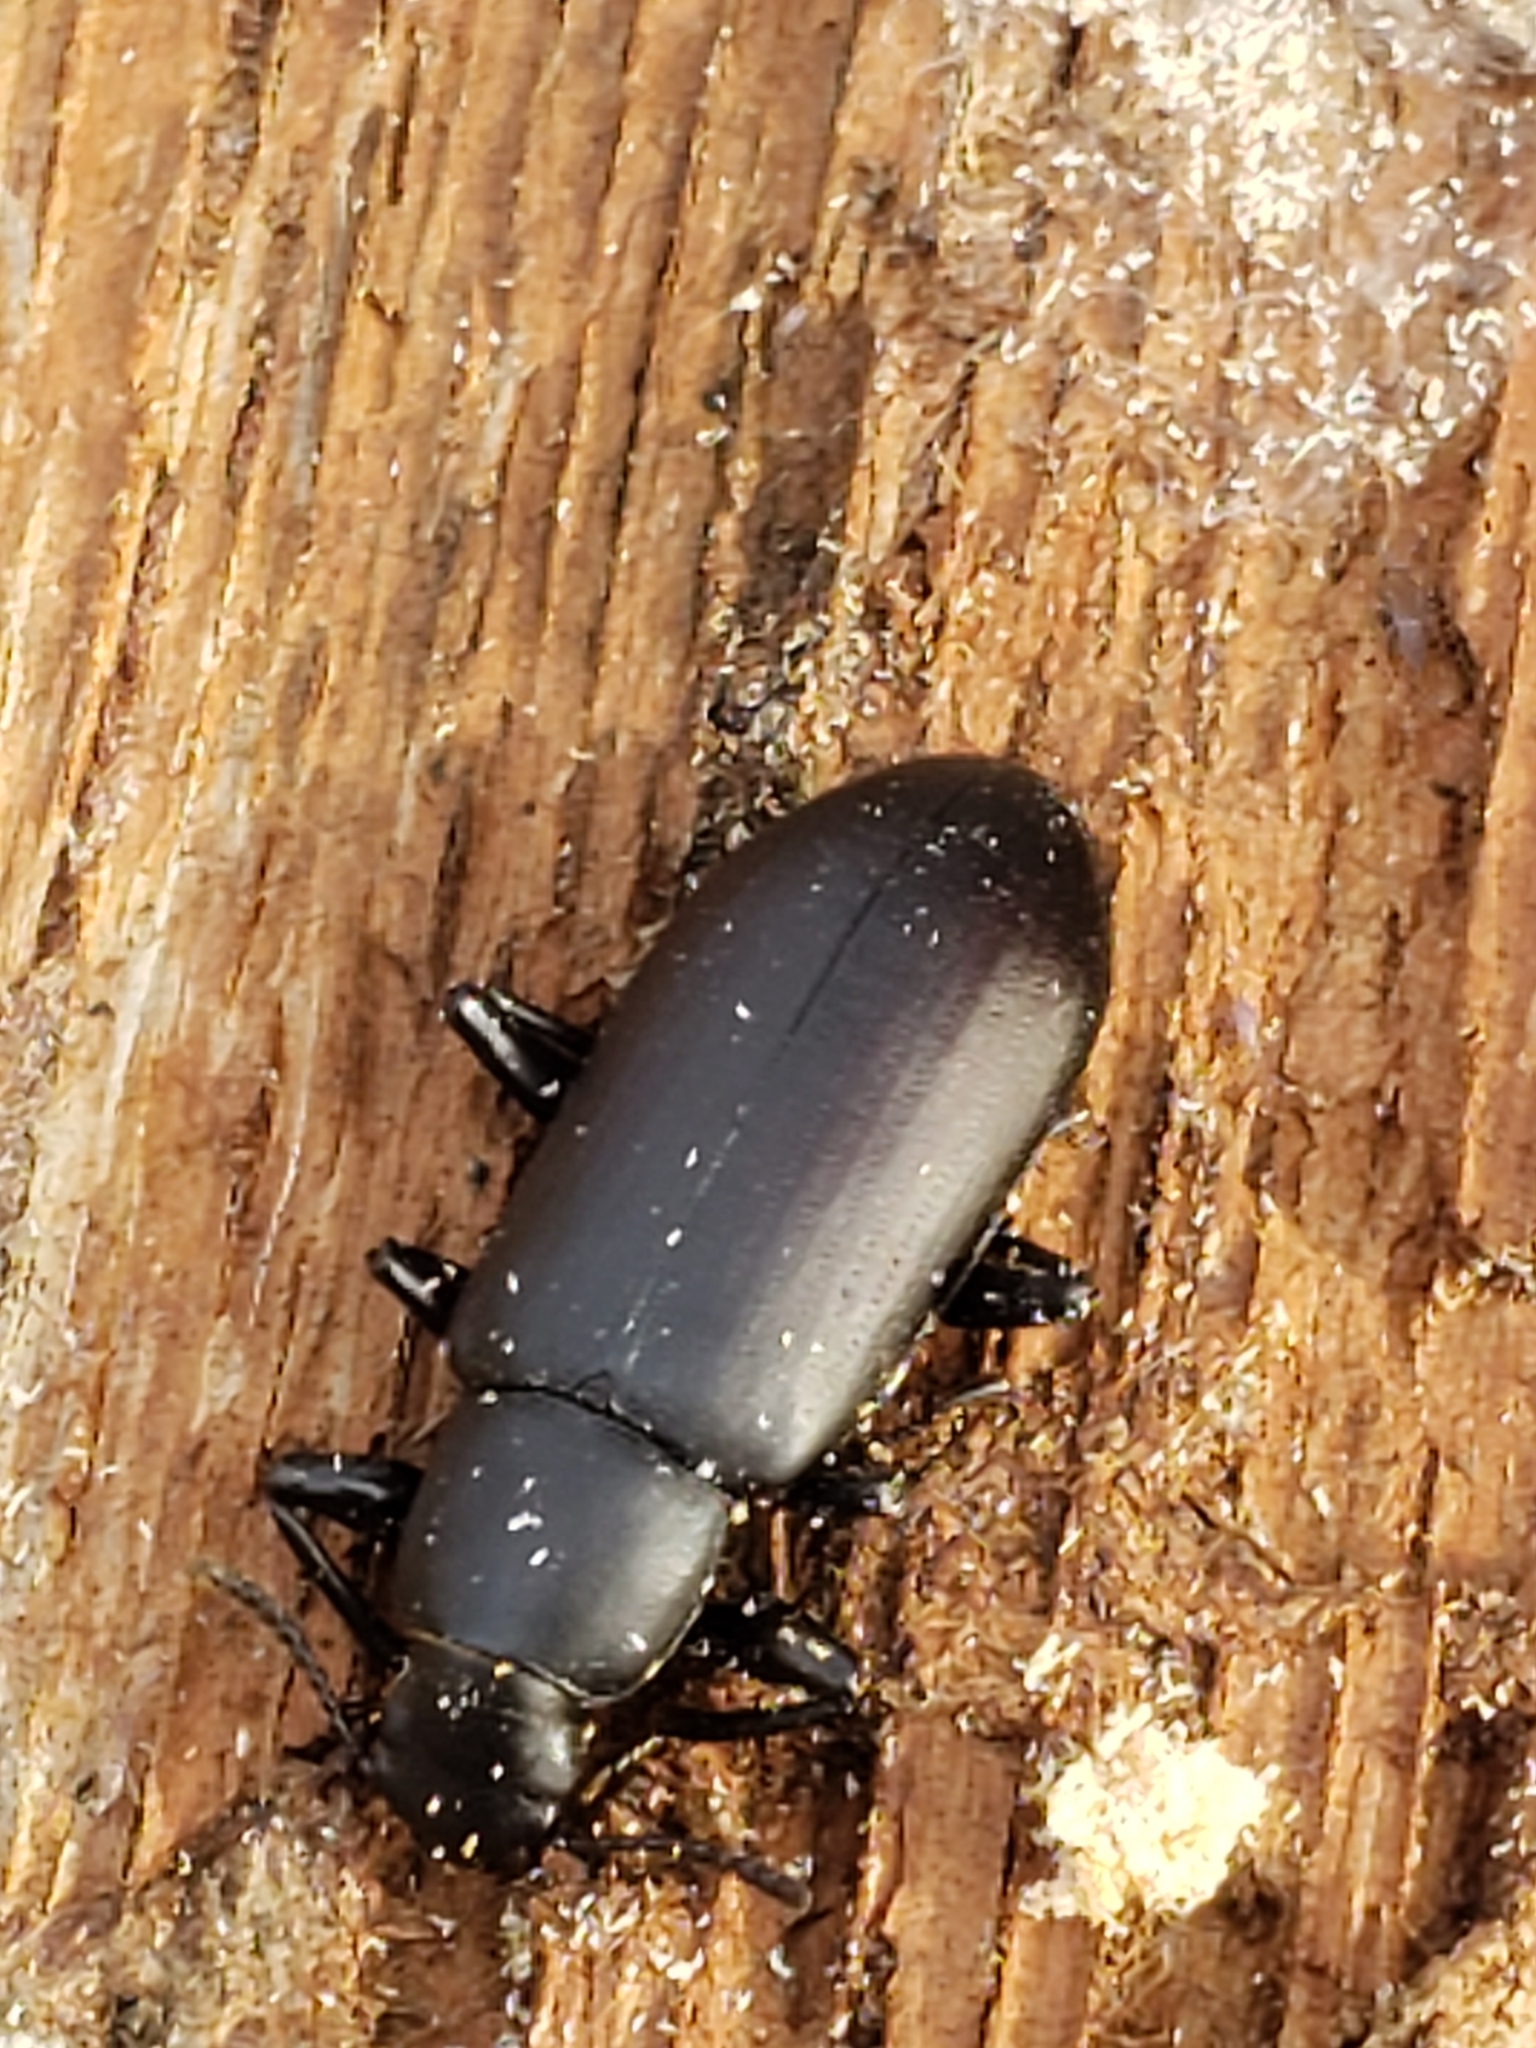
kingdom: Animalia
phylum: Arthropoda
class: Insecta
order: Coleoptera
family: Tenebrionidae
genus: Alobates
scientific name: Alobates
